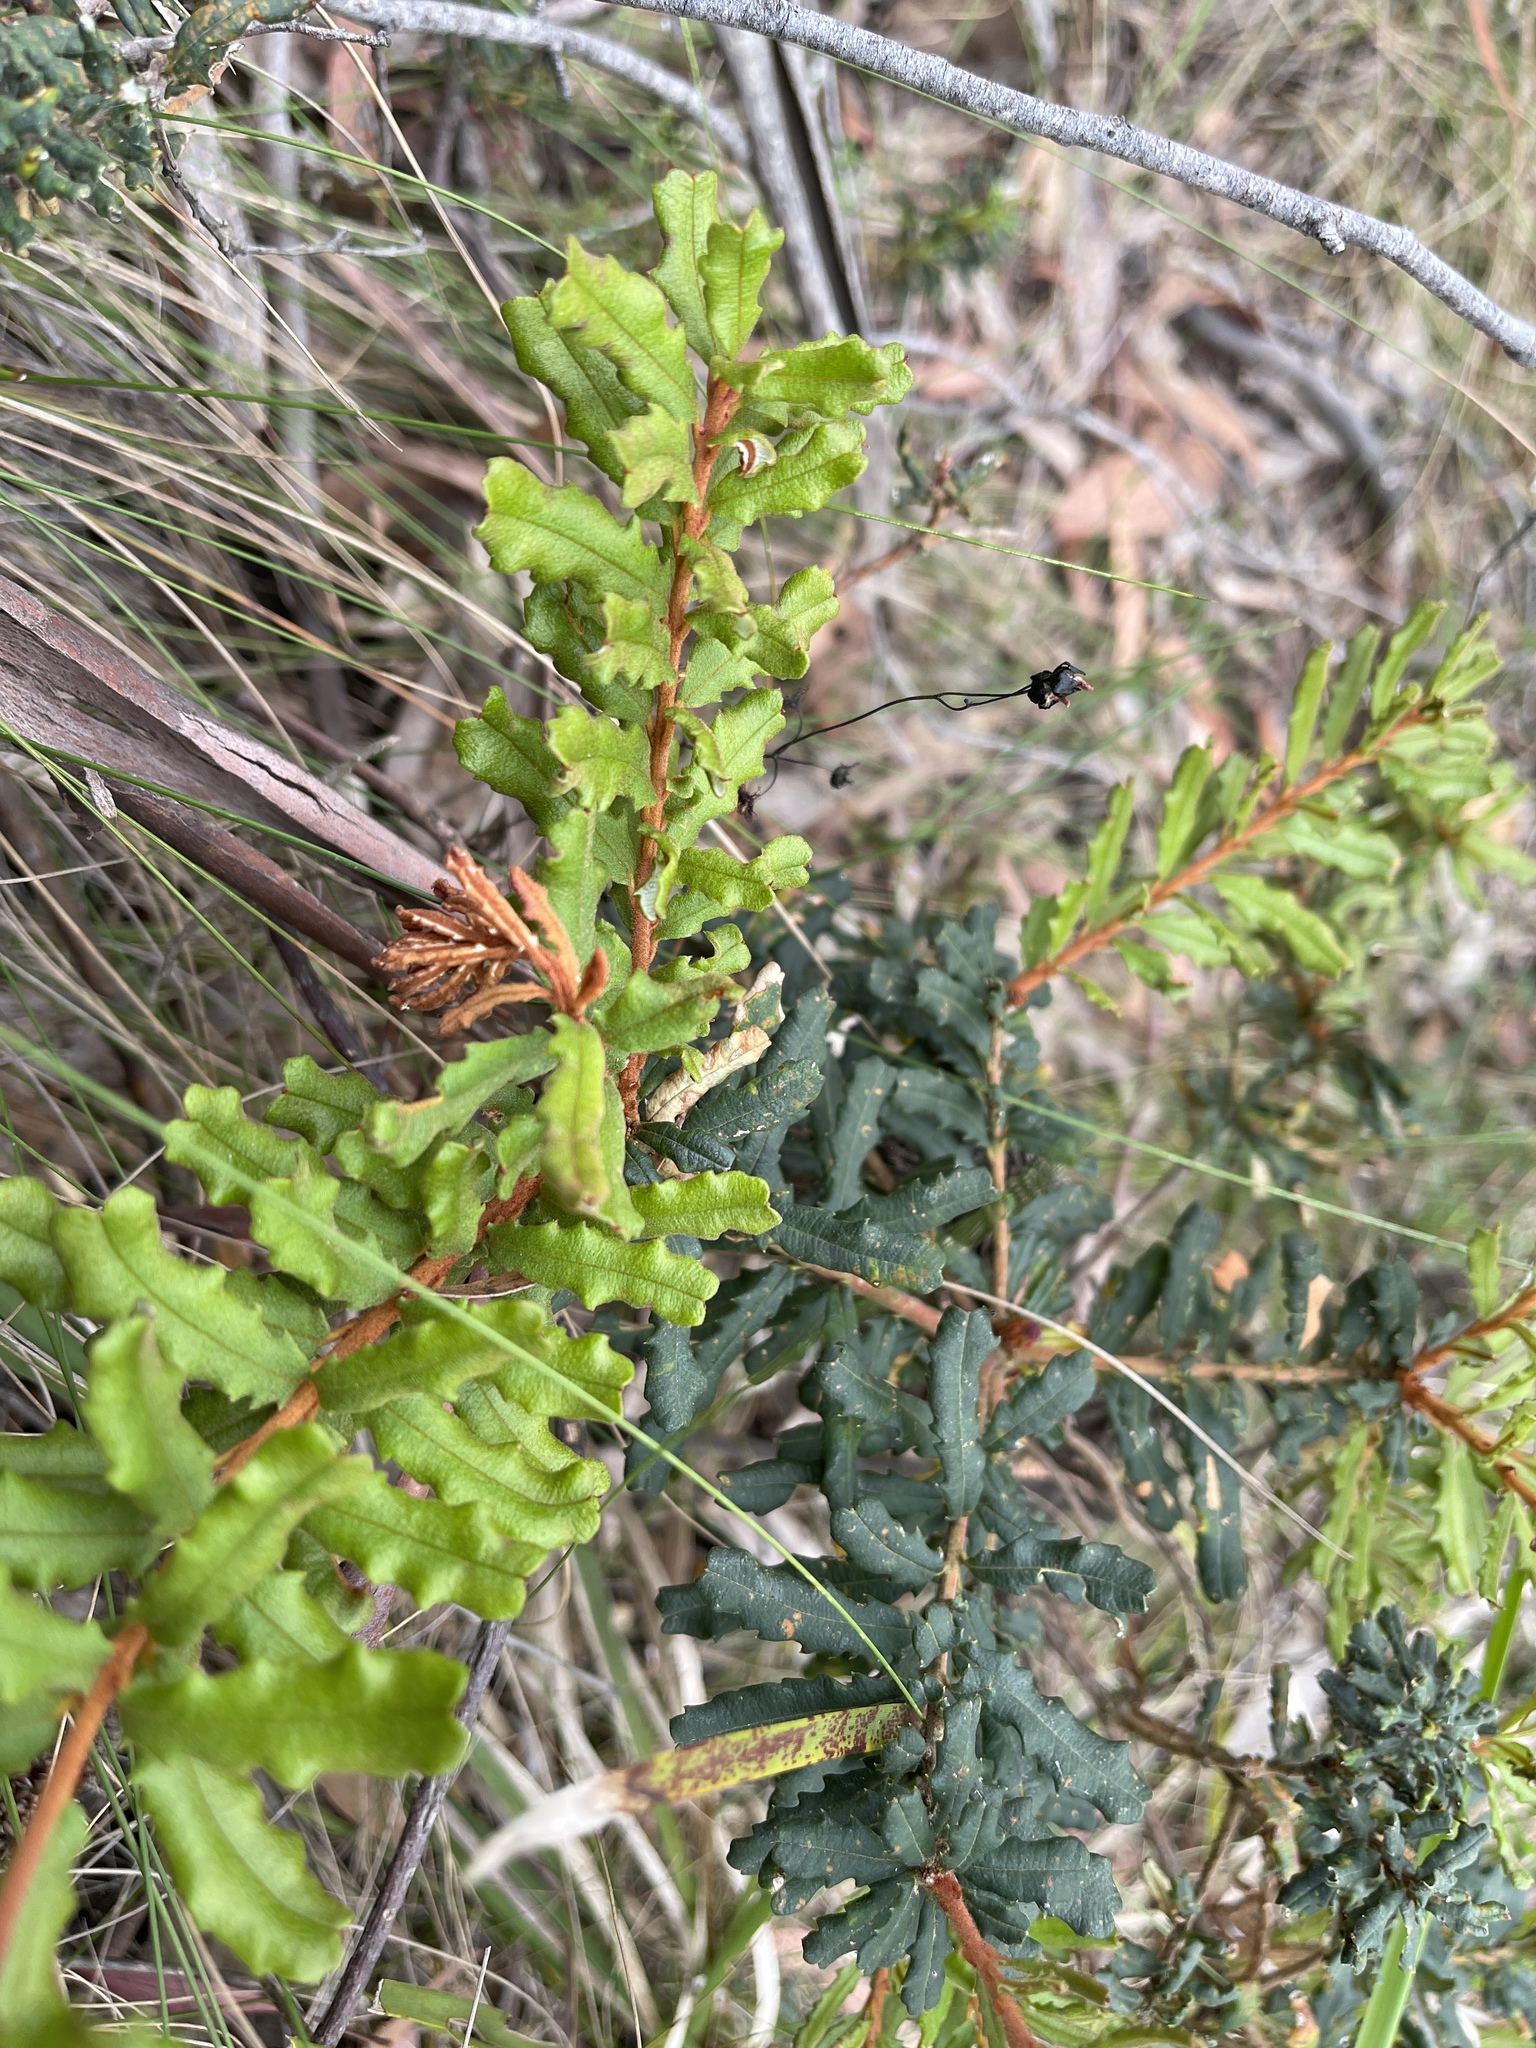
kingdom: Plantae
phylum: Tracheophyta
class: Magnoliopsida
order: Proteales
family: Proteaceae
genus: Banksia
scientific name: Banksia marginata
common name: Silver banksia
